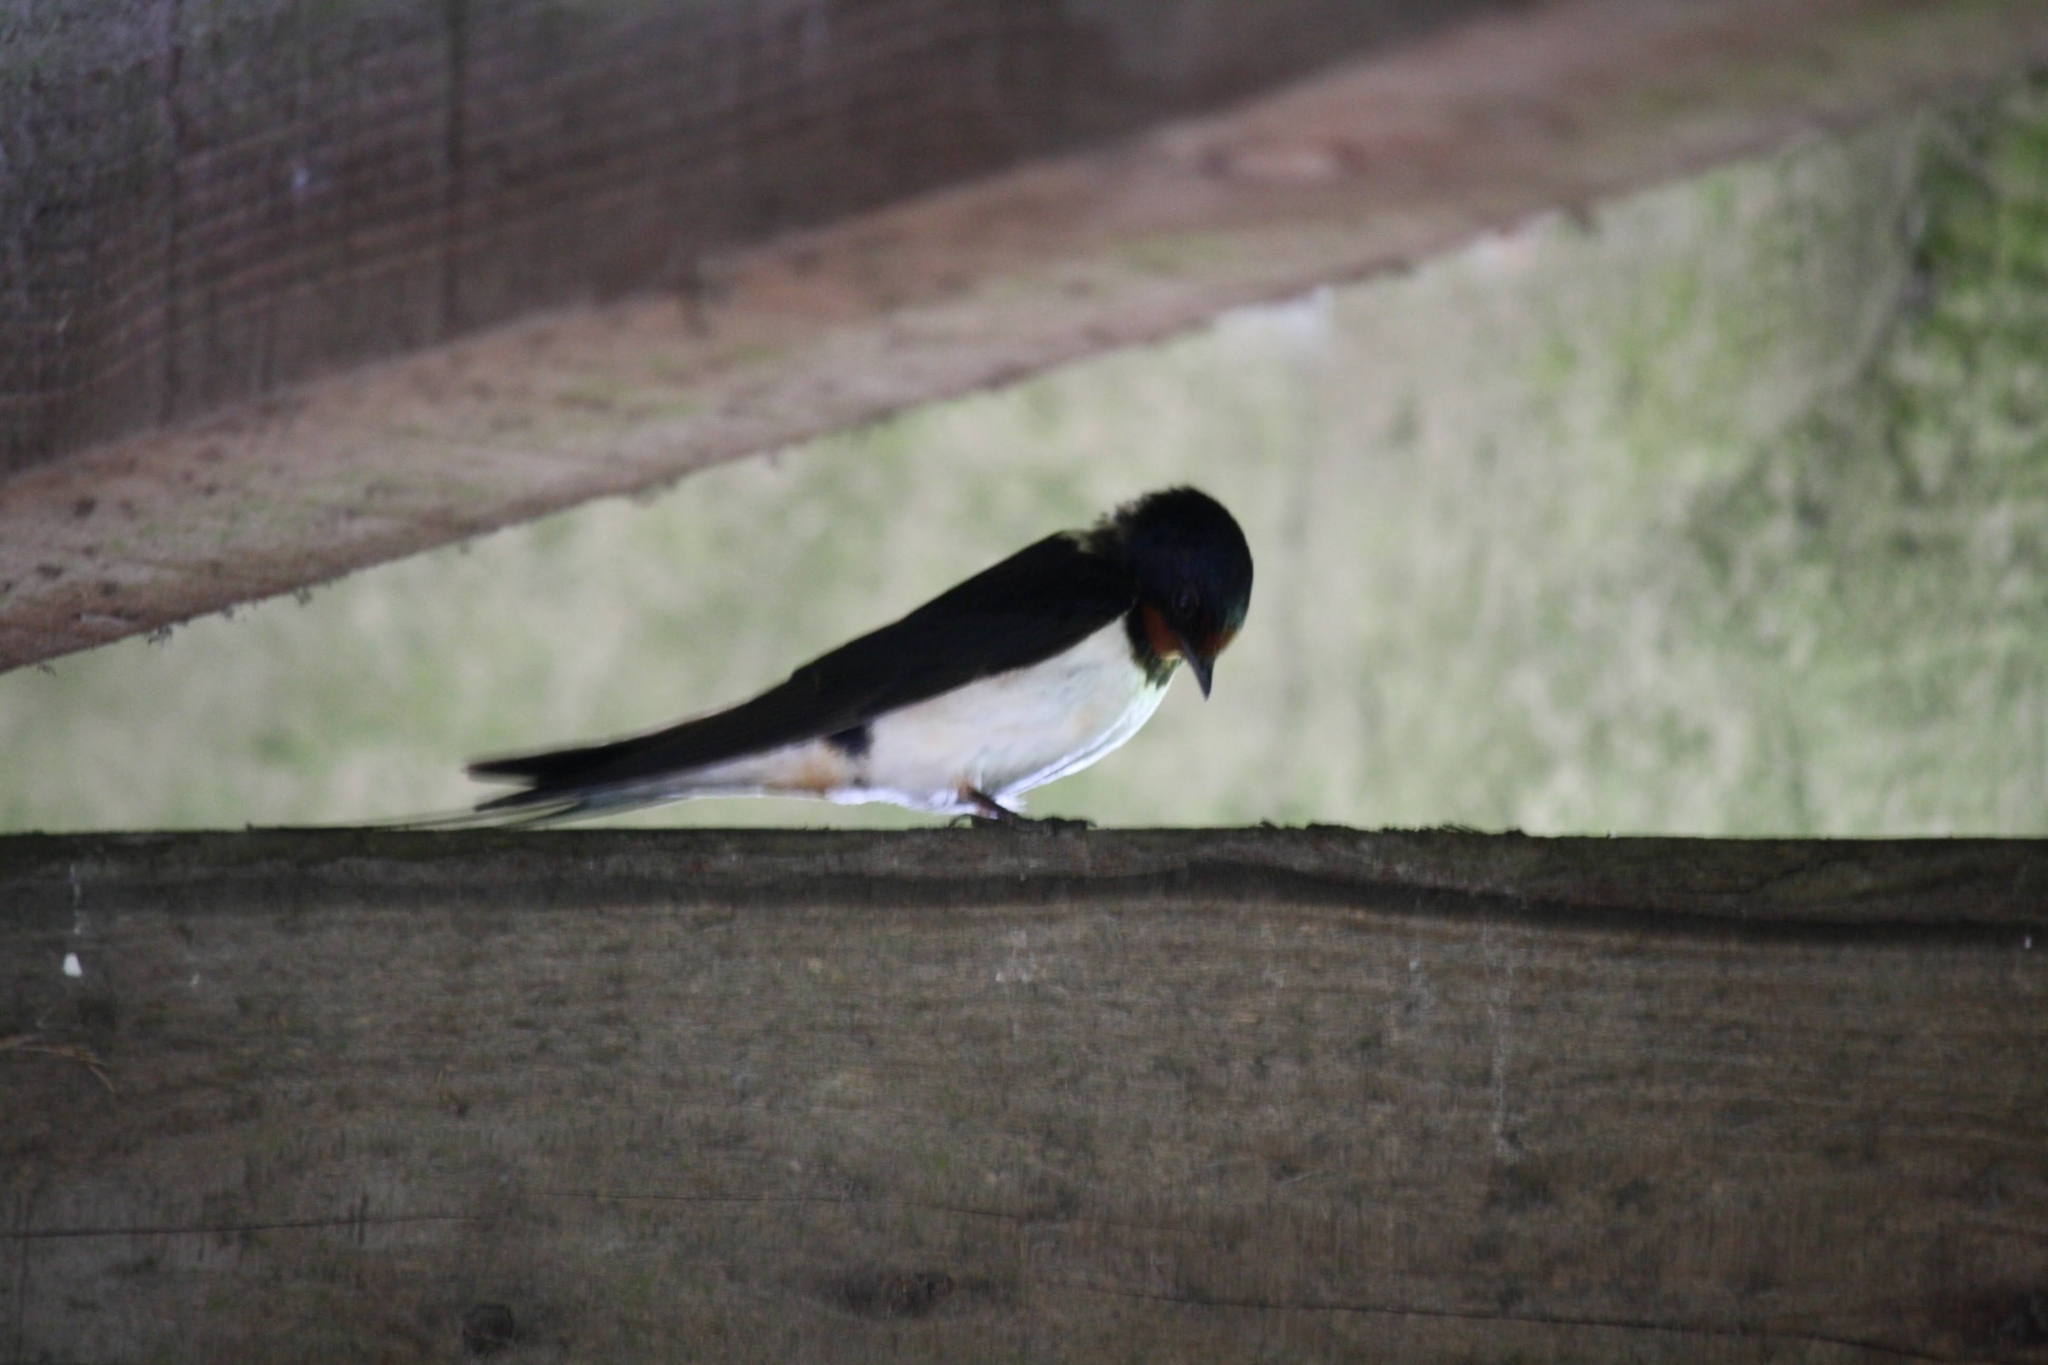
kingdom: Animalia
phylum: Chordata
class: Aves
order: Passeriformes
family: Hirundinidae
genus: Hirundo
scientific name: Hirundo rustica
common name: Barn swallow
